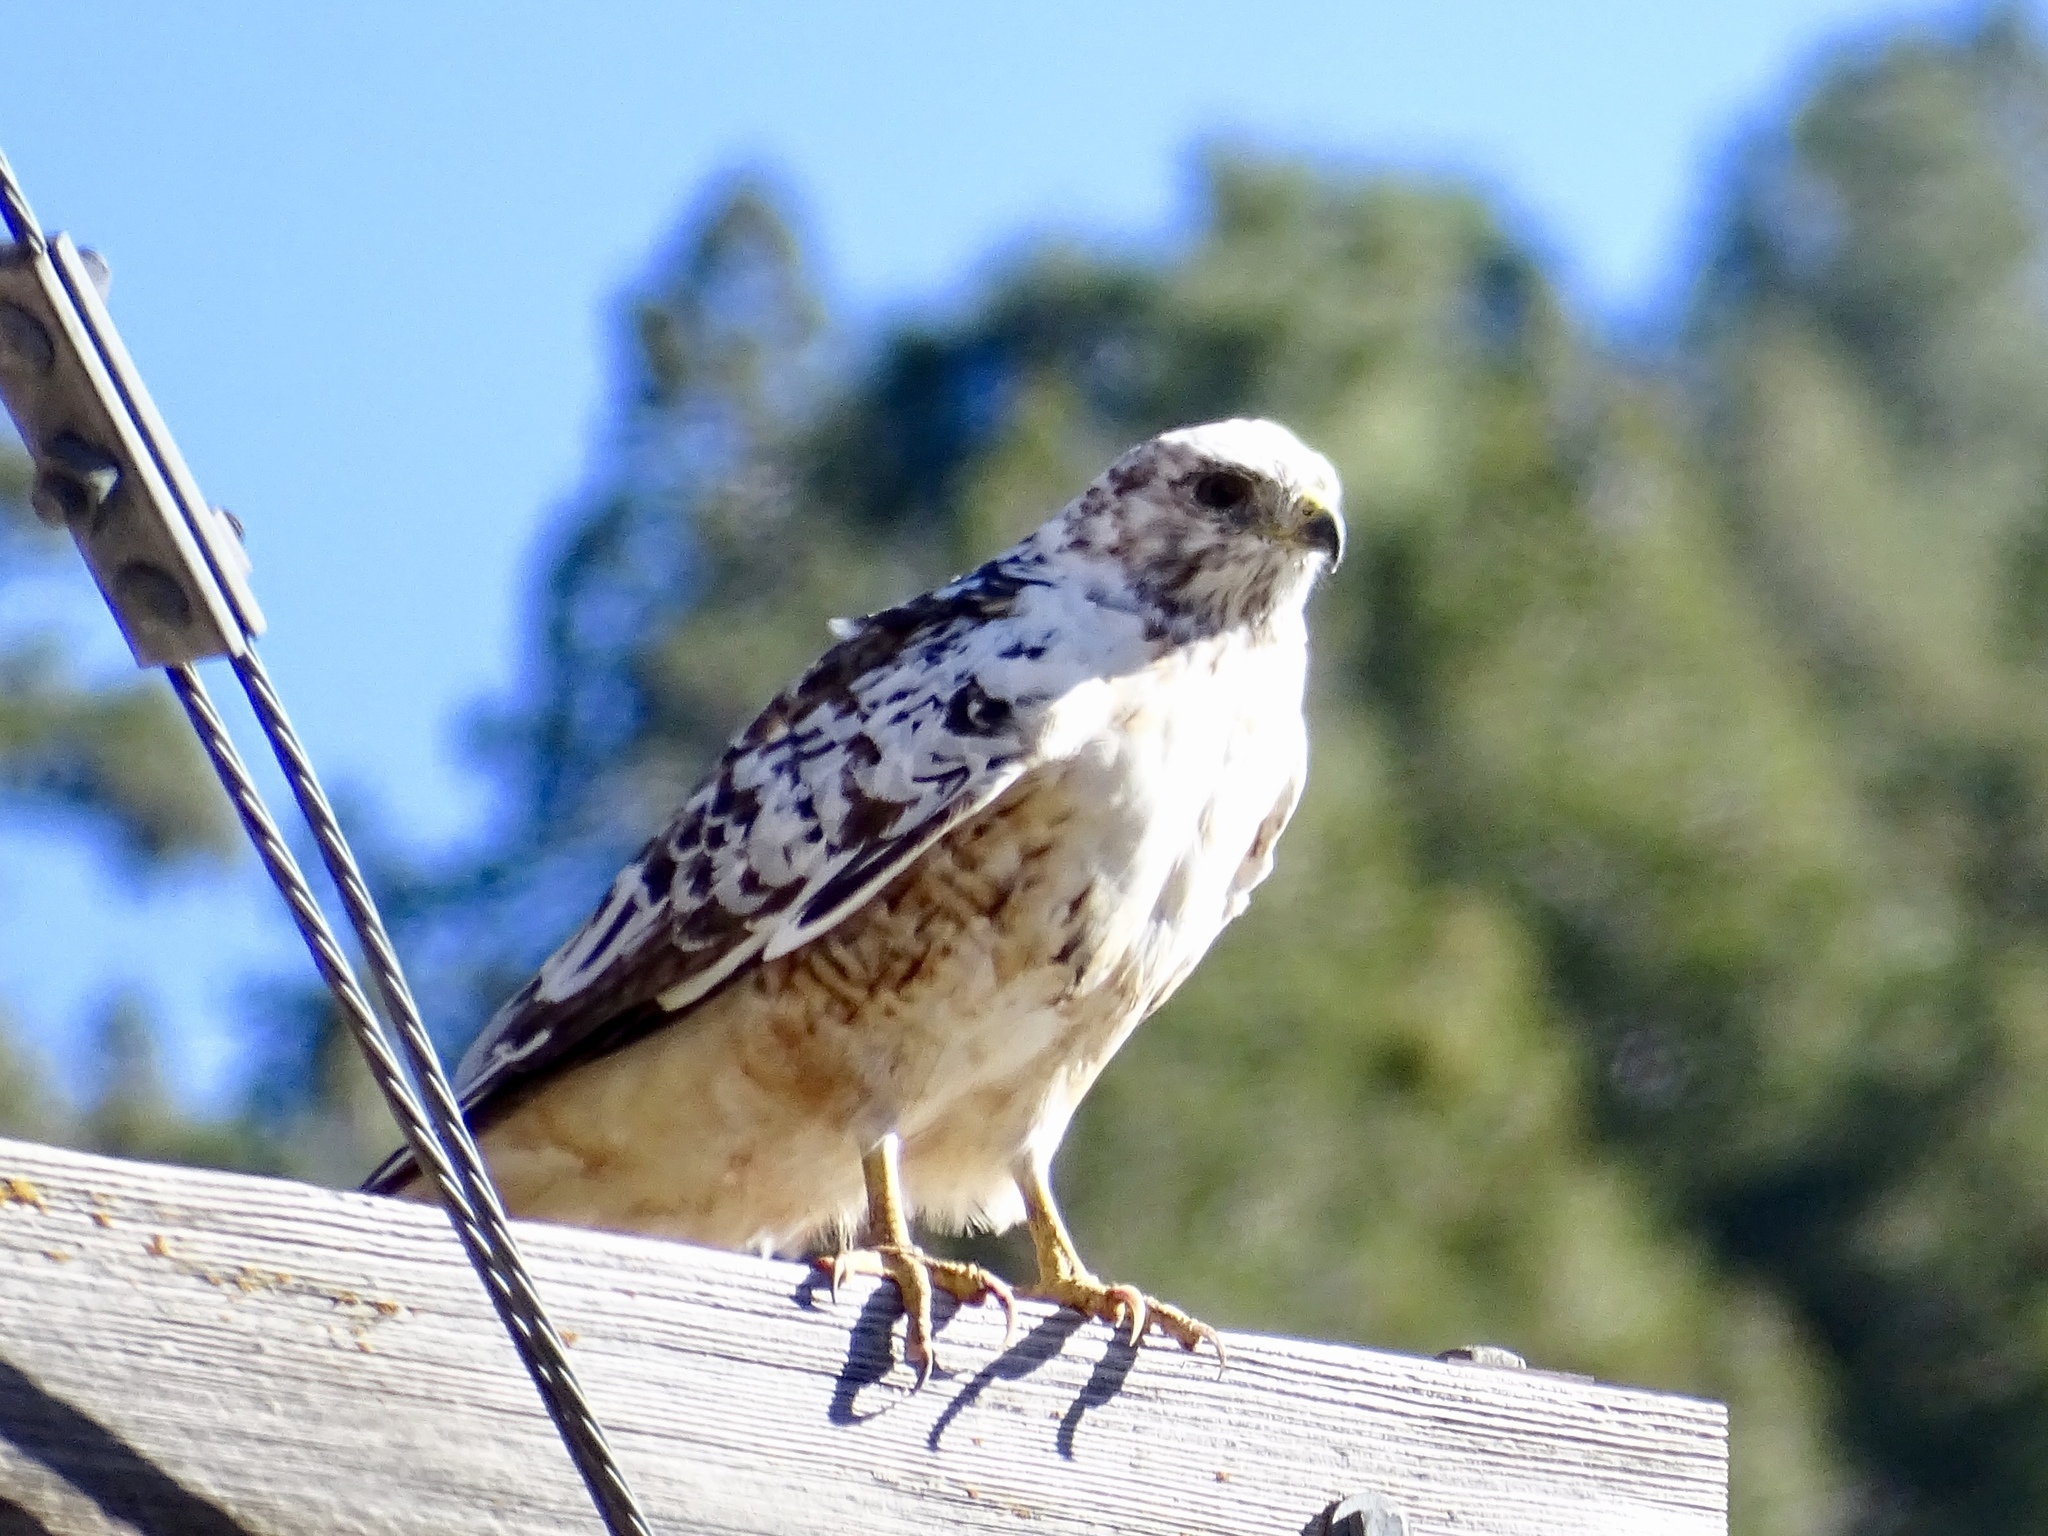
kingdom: Animalia
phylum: Chordata
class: Aves
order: Accipitriformes
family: Accipitridae
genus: Buteo
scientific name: Buteo jamaicensis
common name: Red-tailed hawk
